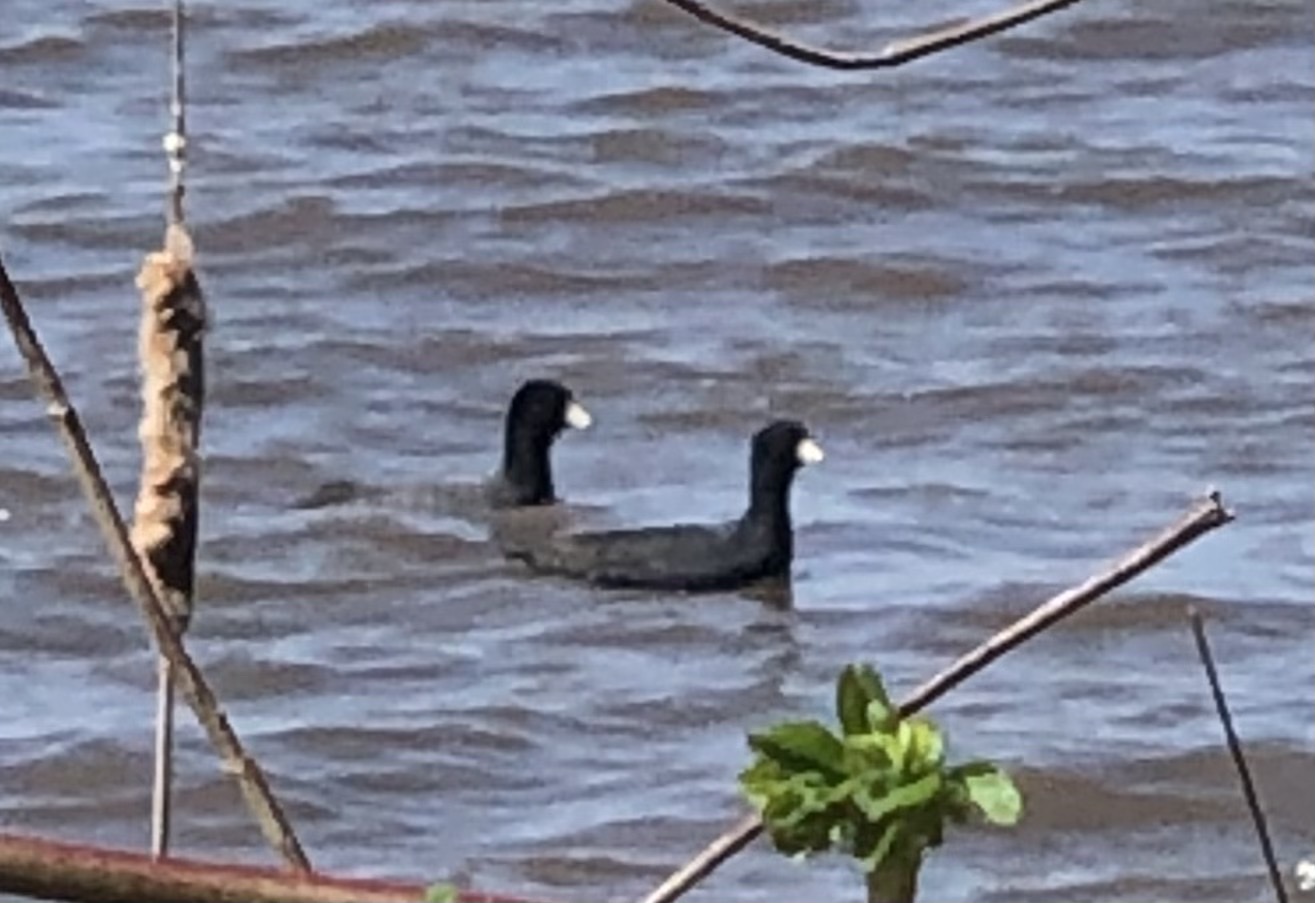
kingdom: Animalia
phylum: Chordata
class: Aves
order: Gruiformes
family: Rallidae
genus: Fulica
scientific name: Fulica americana
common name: American coot
